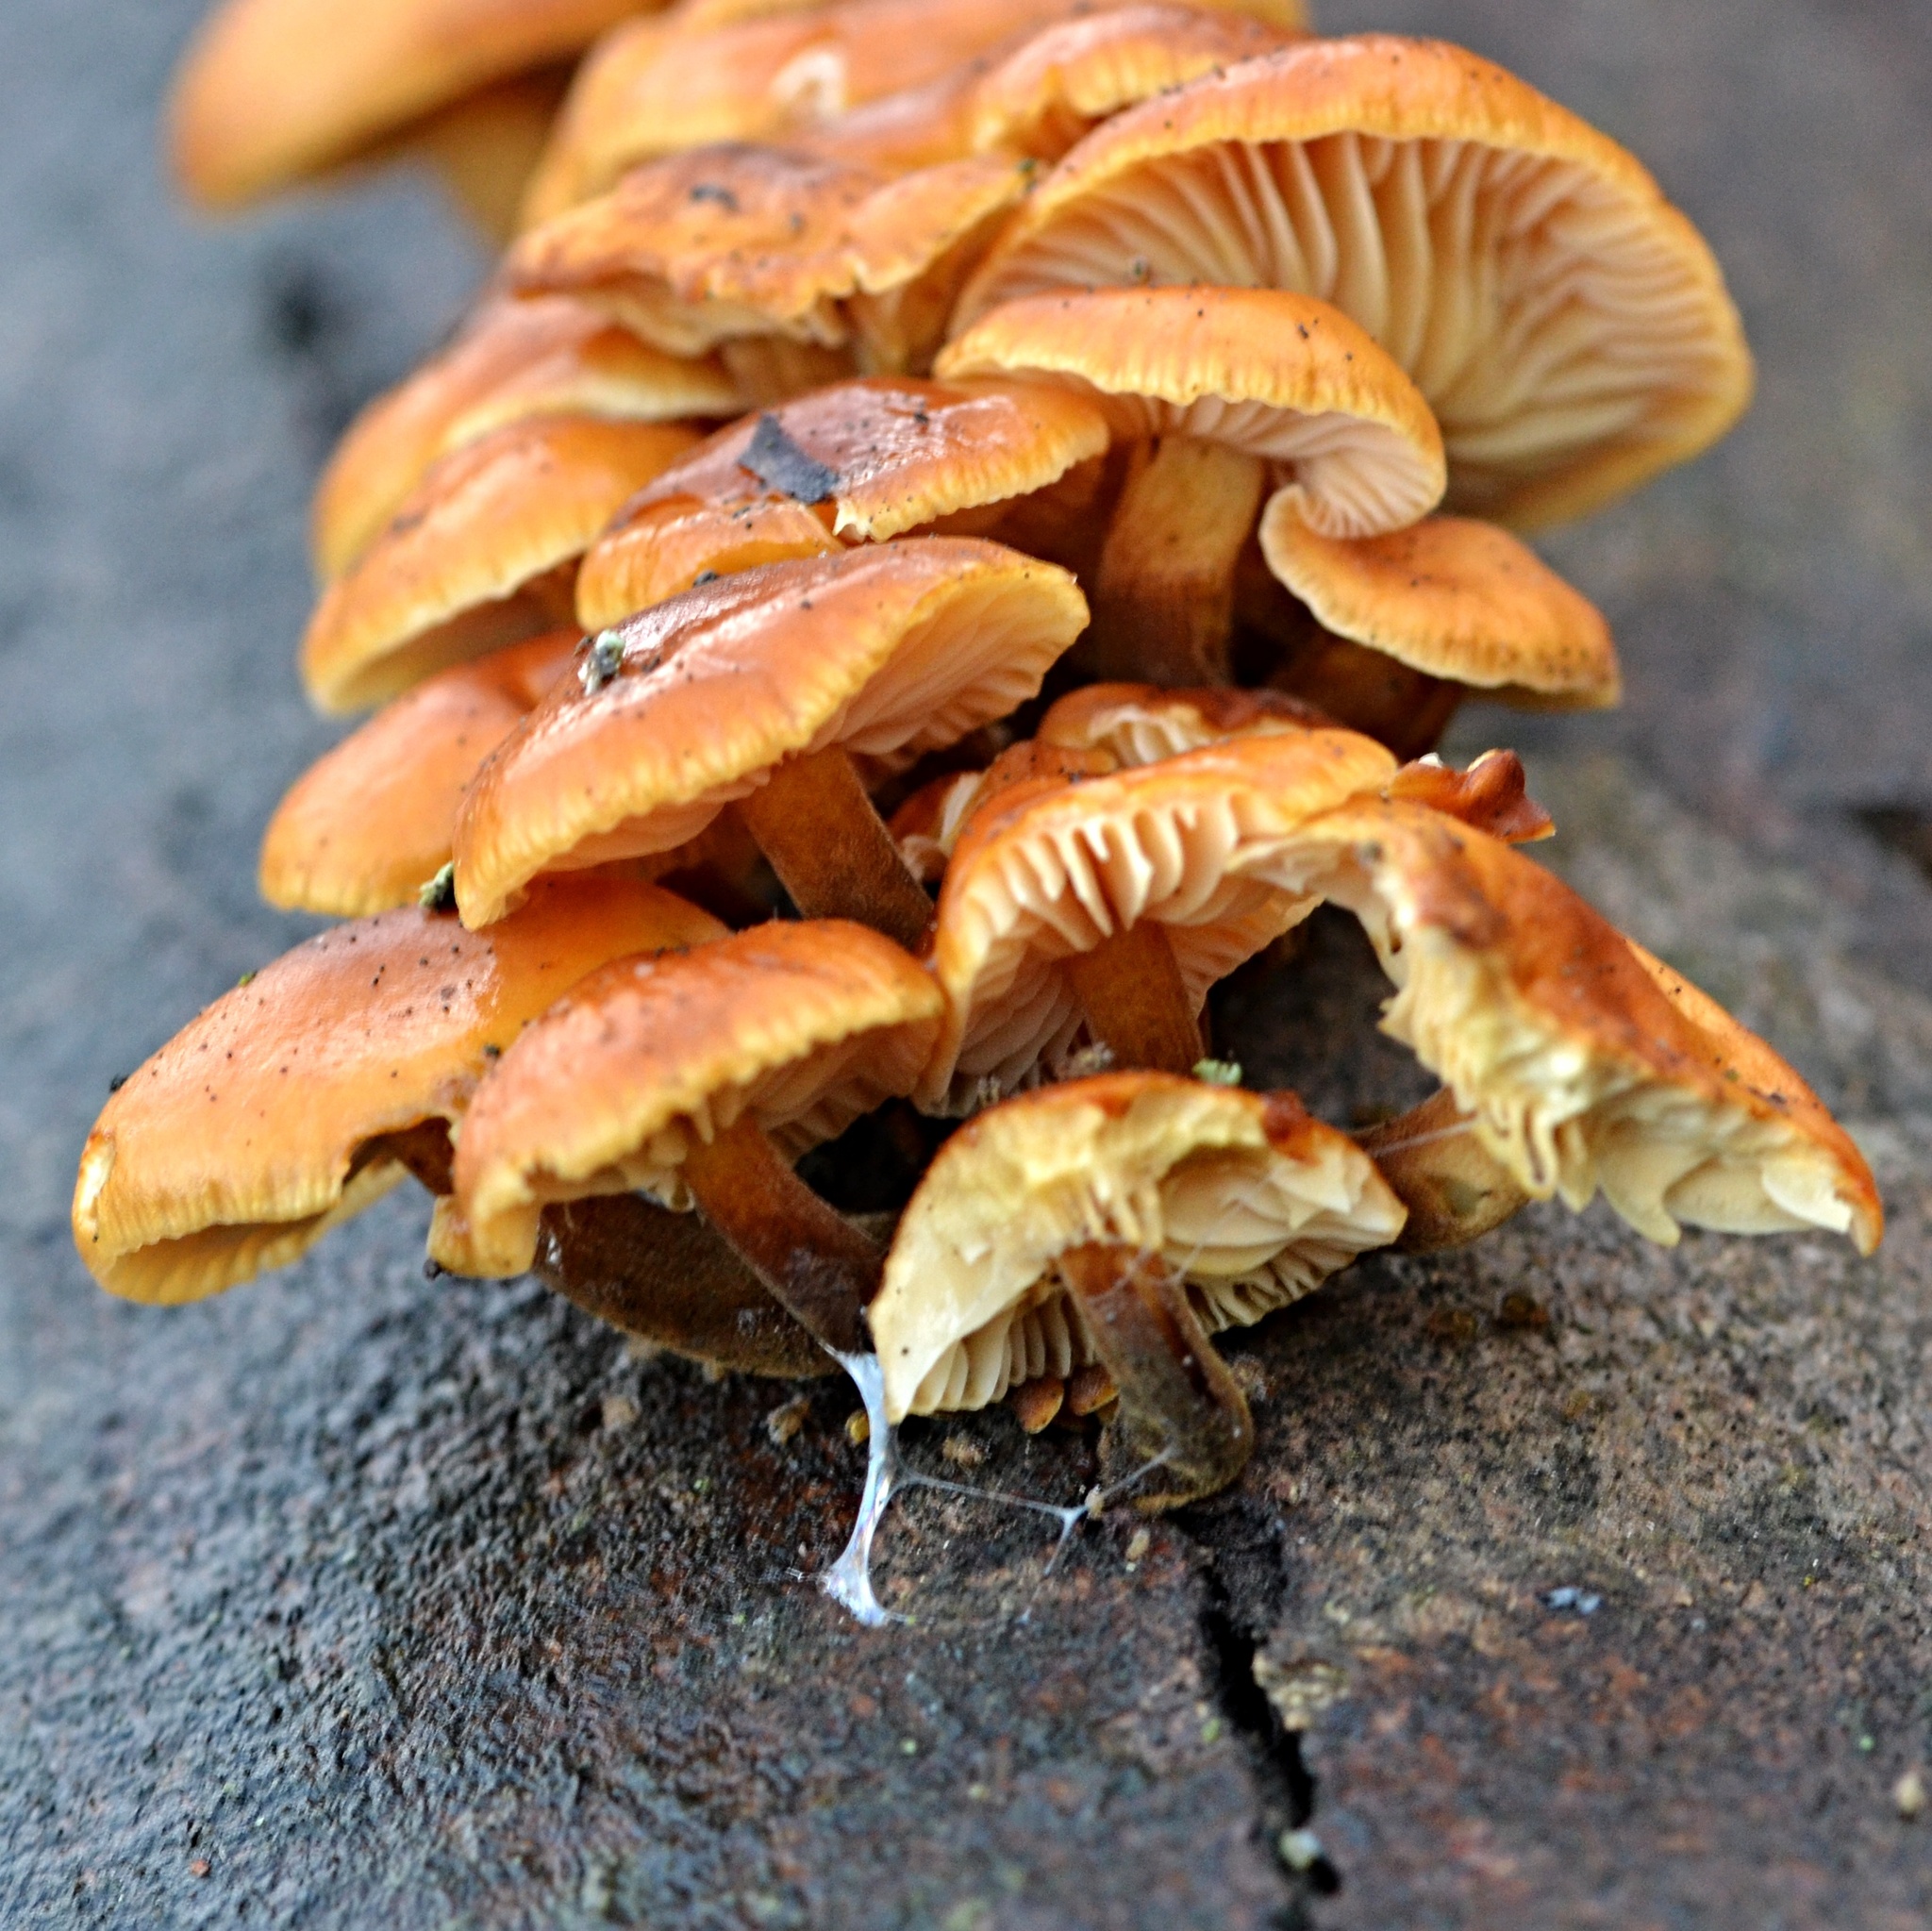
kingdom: Fungi
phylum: Basidiomycota
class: Agaricomycetes
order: Agaricales
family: Physalacriaceae
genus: Flammulina
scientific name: Flammulina
